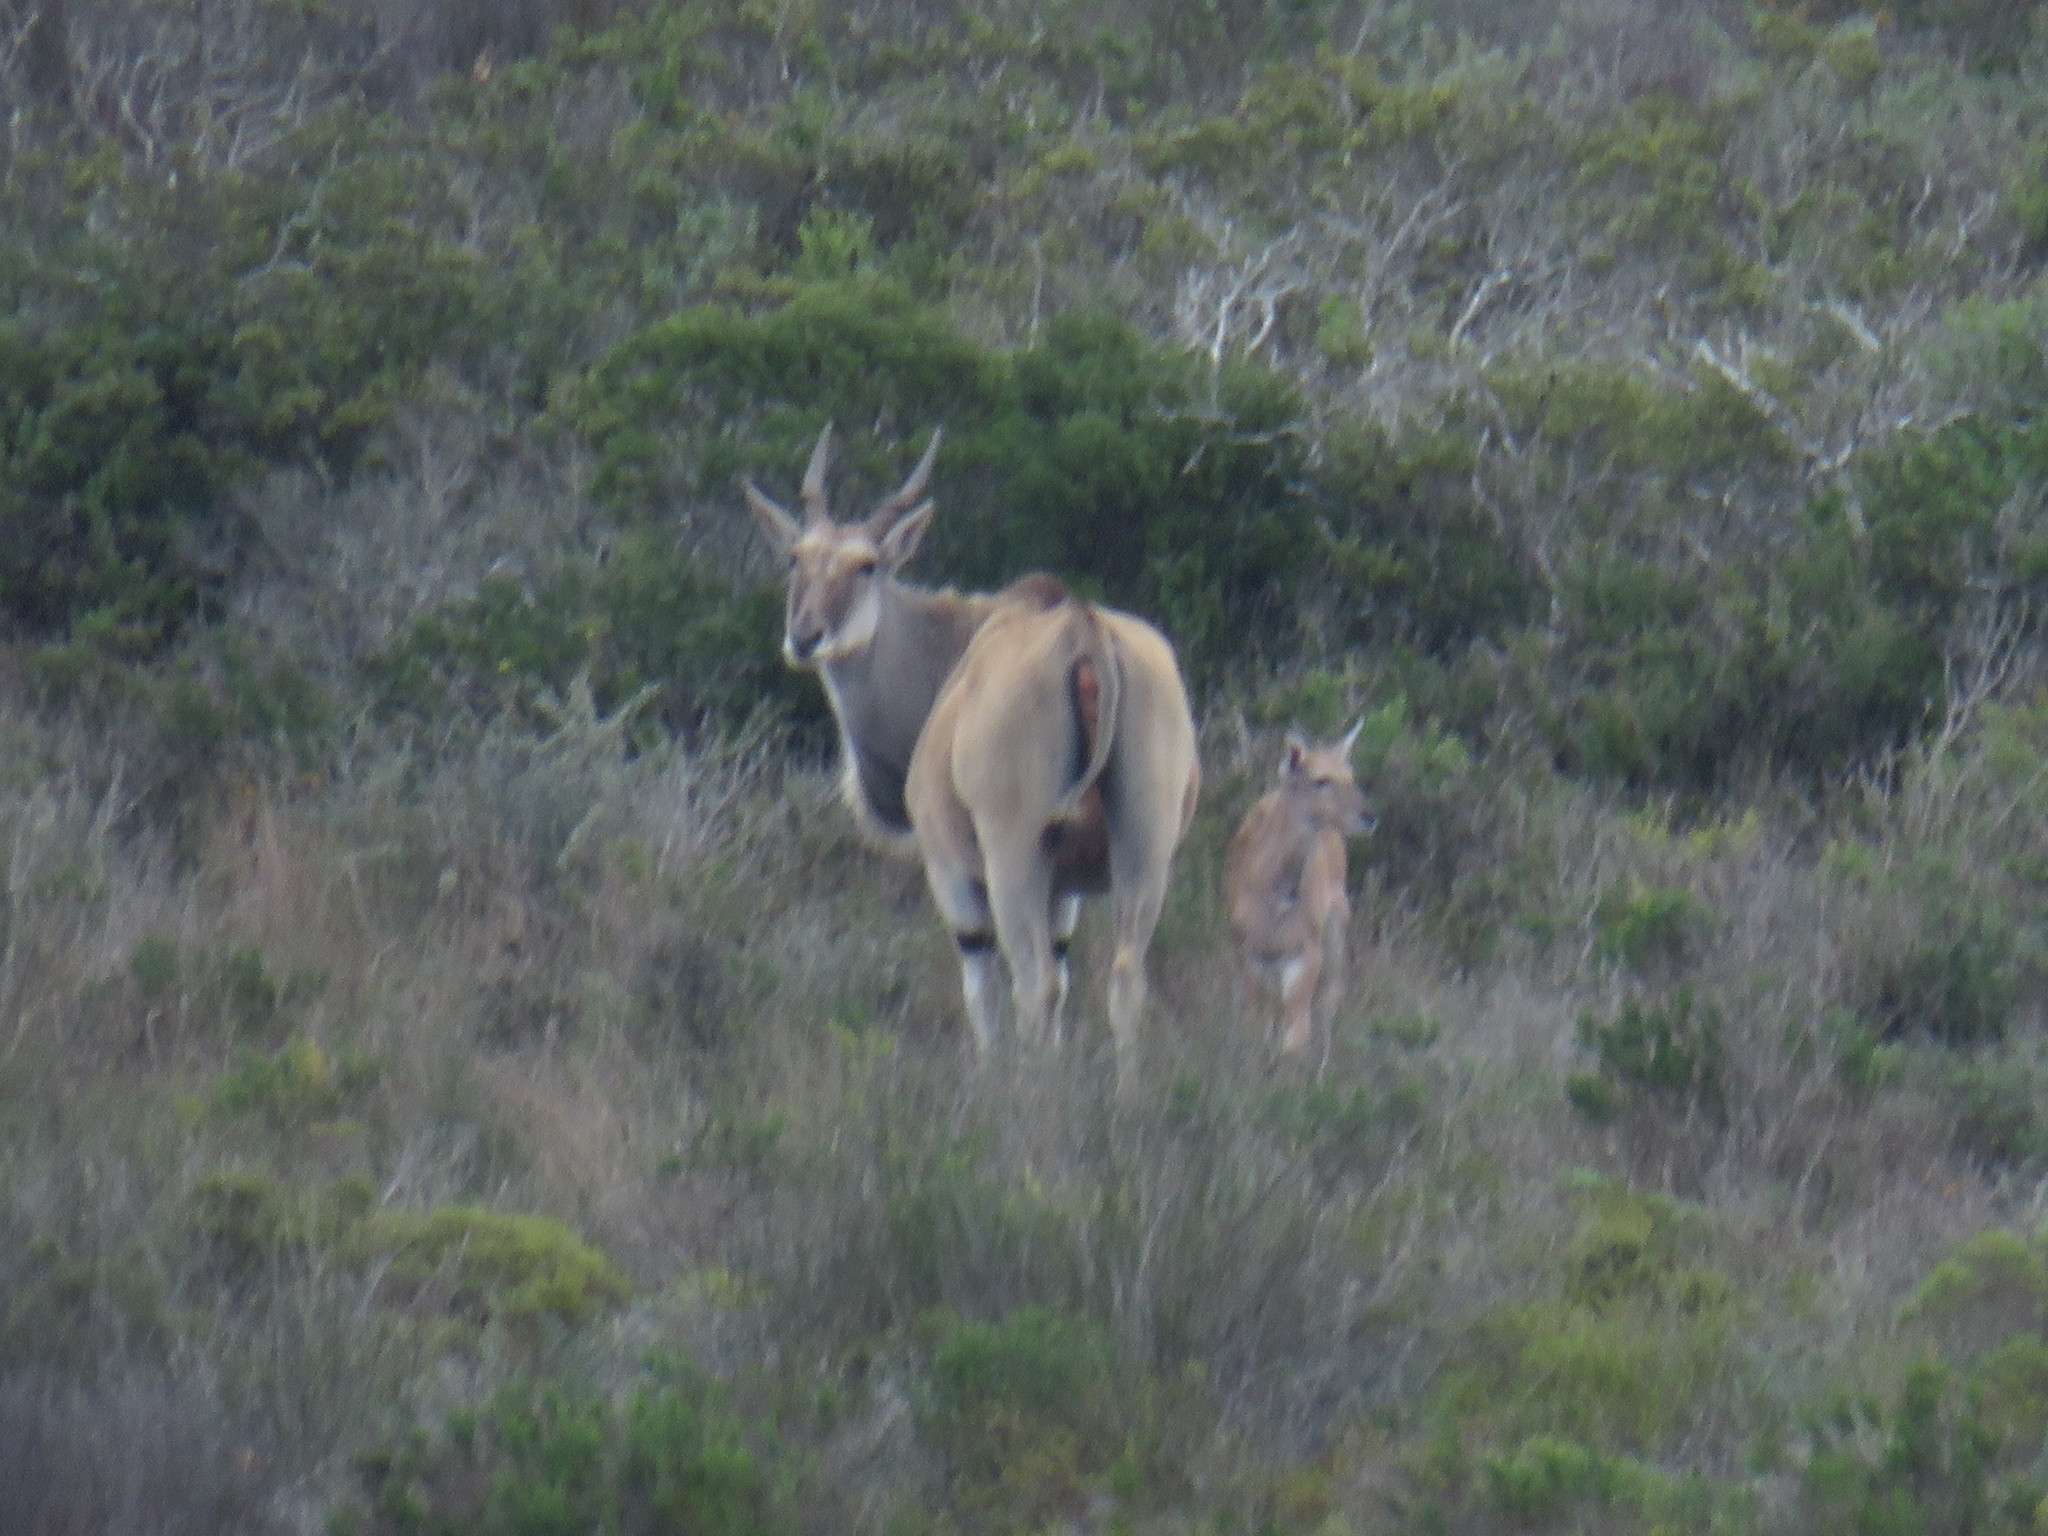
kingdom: Animalia
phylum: Chordata
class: Mammalia
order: Artiodactyla
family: Bovidae
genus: Taurotragus
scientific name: Taurotragus oryx
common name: Common eland
